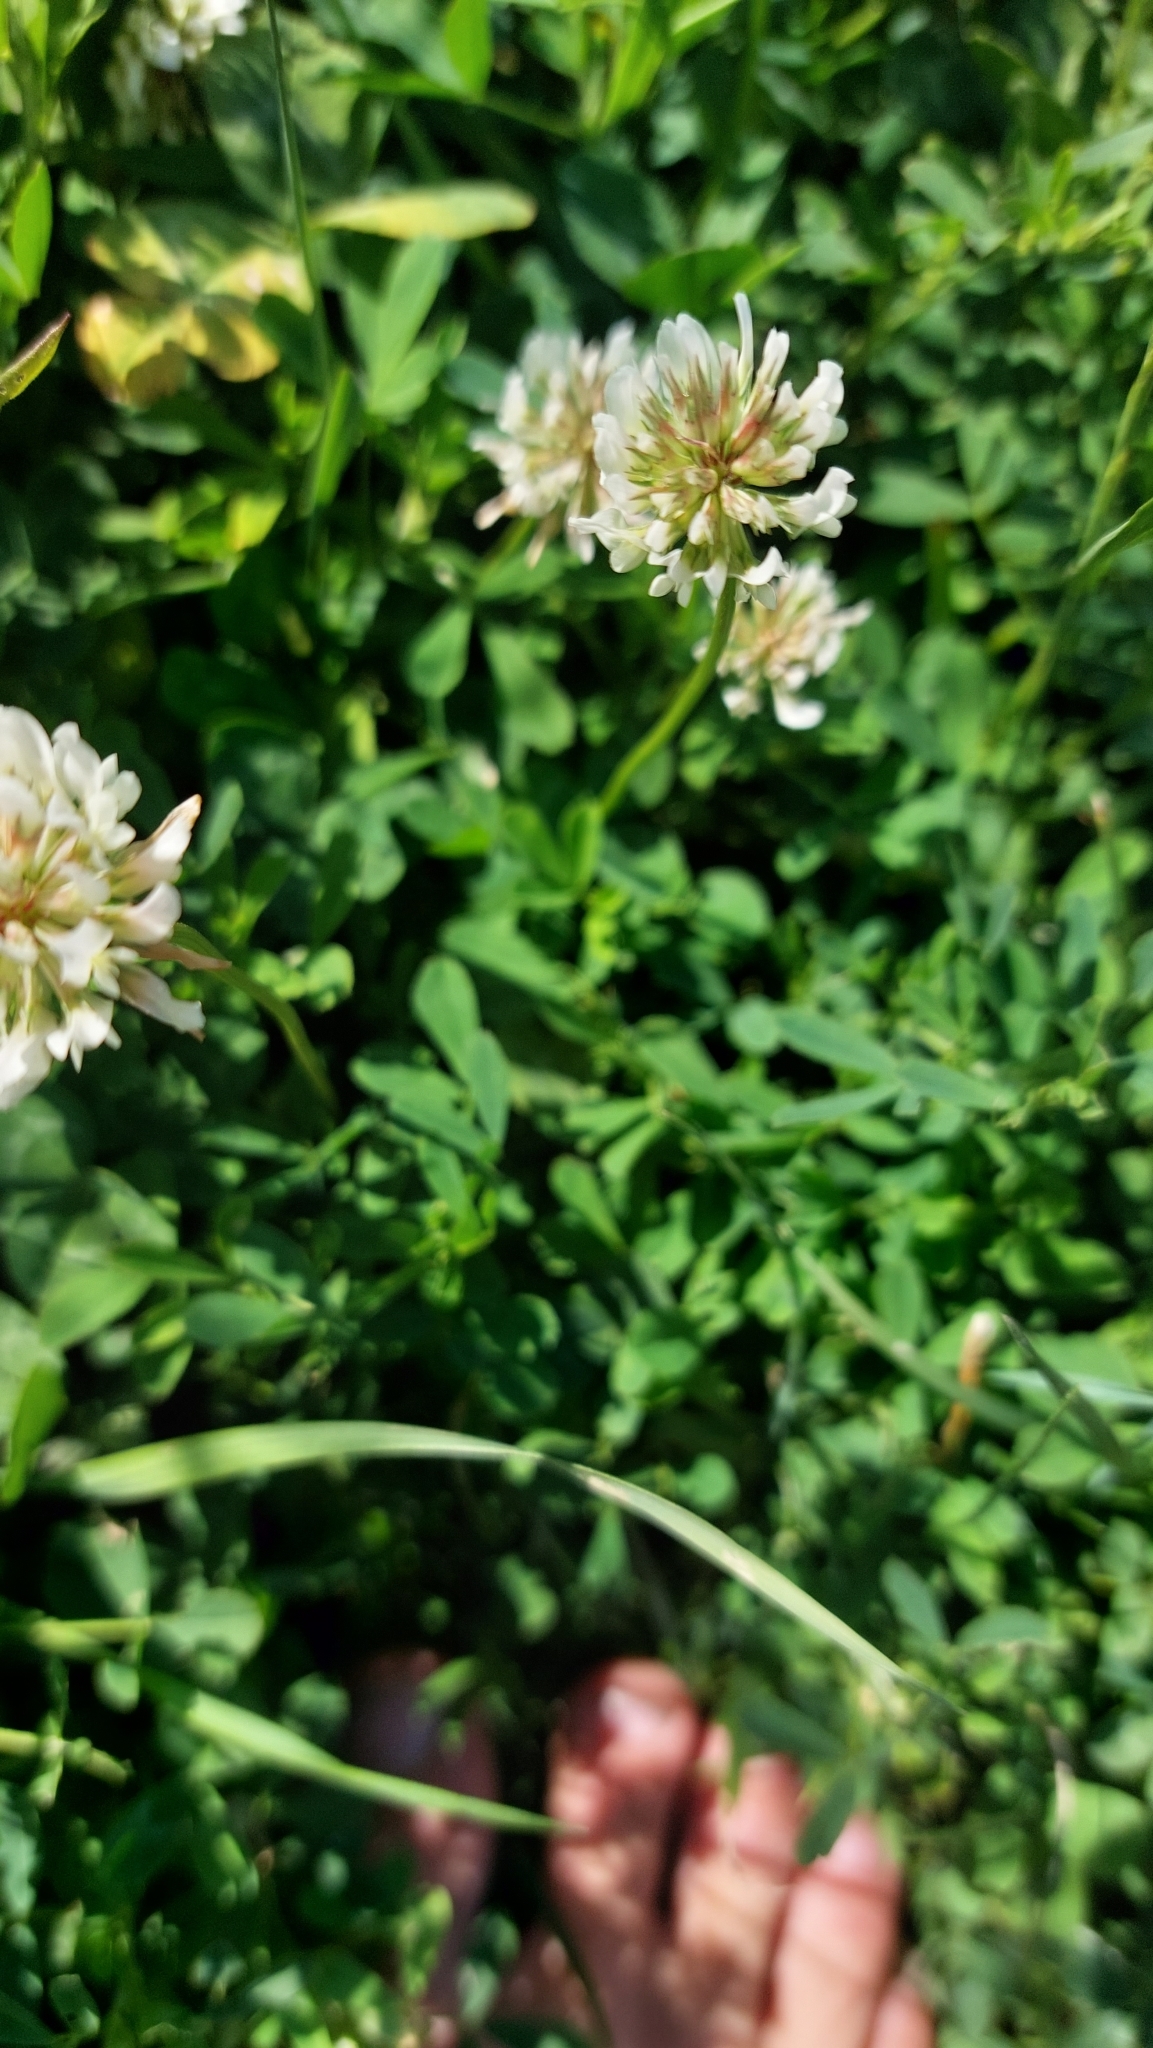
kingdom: Plantae
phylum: Tracheophyta
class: Magnoliopsida
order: Fabales
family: Fabaceae
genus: Trifolium
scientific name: Trifolium repens
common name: White clover
